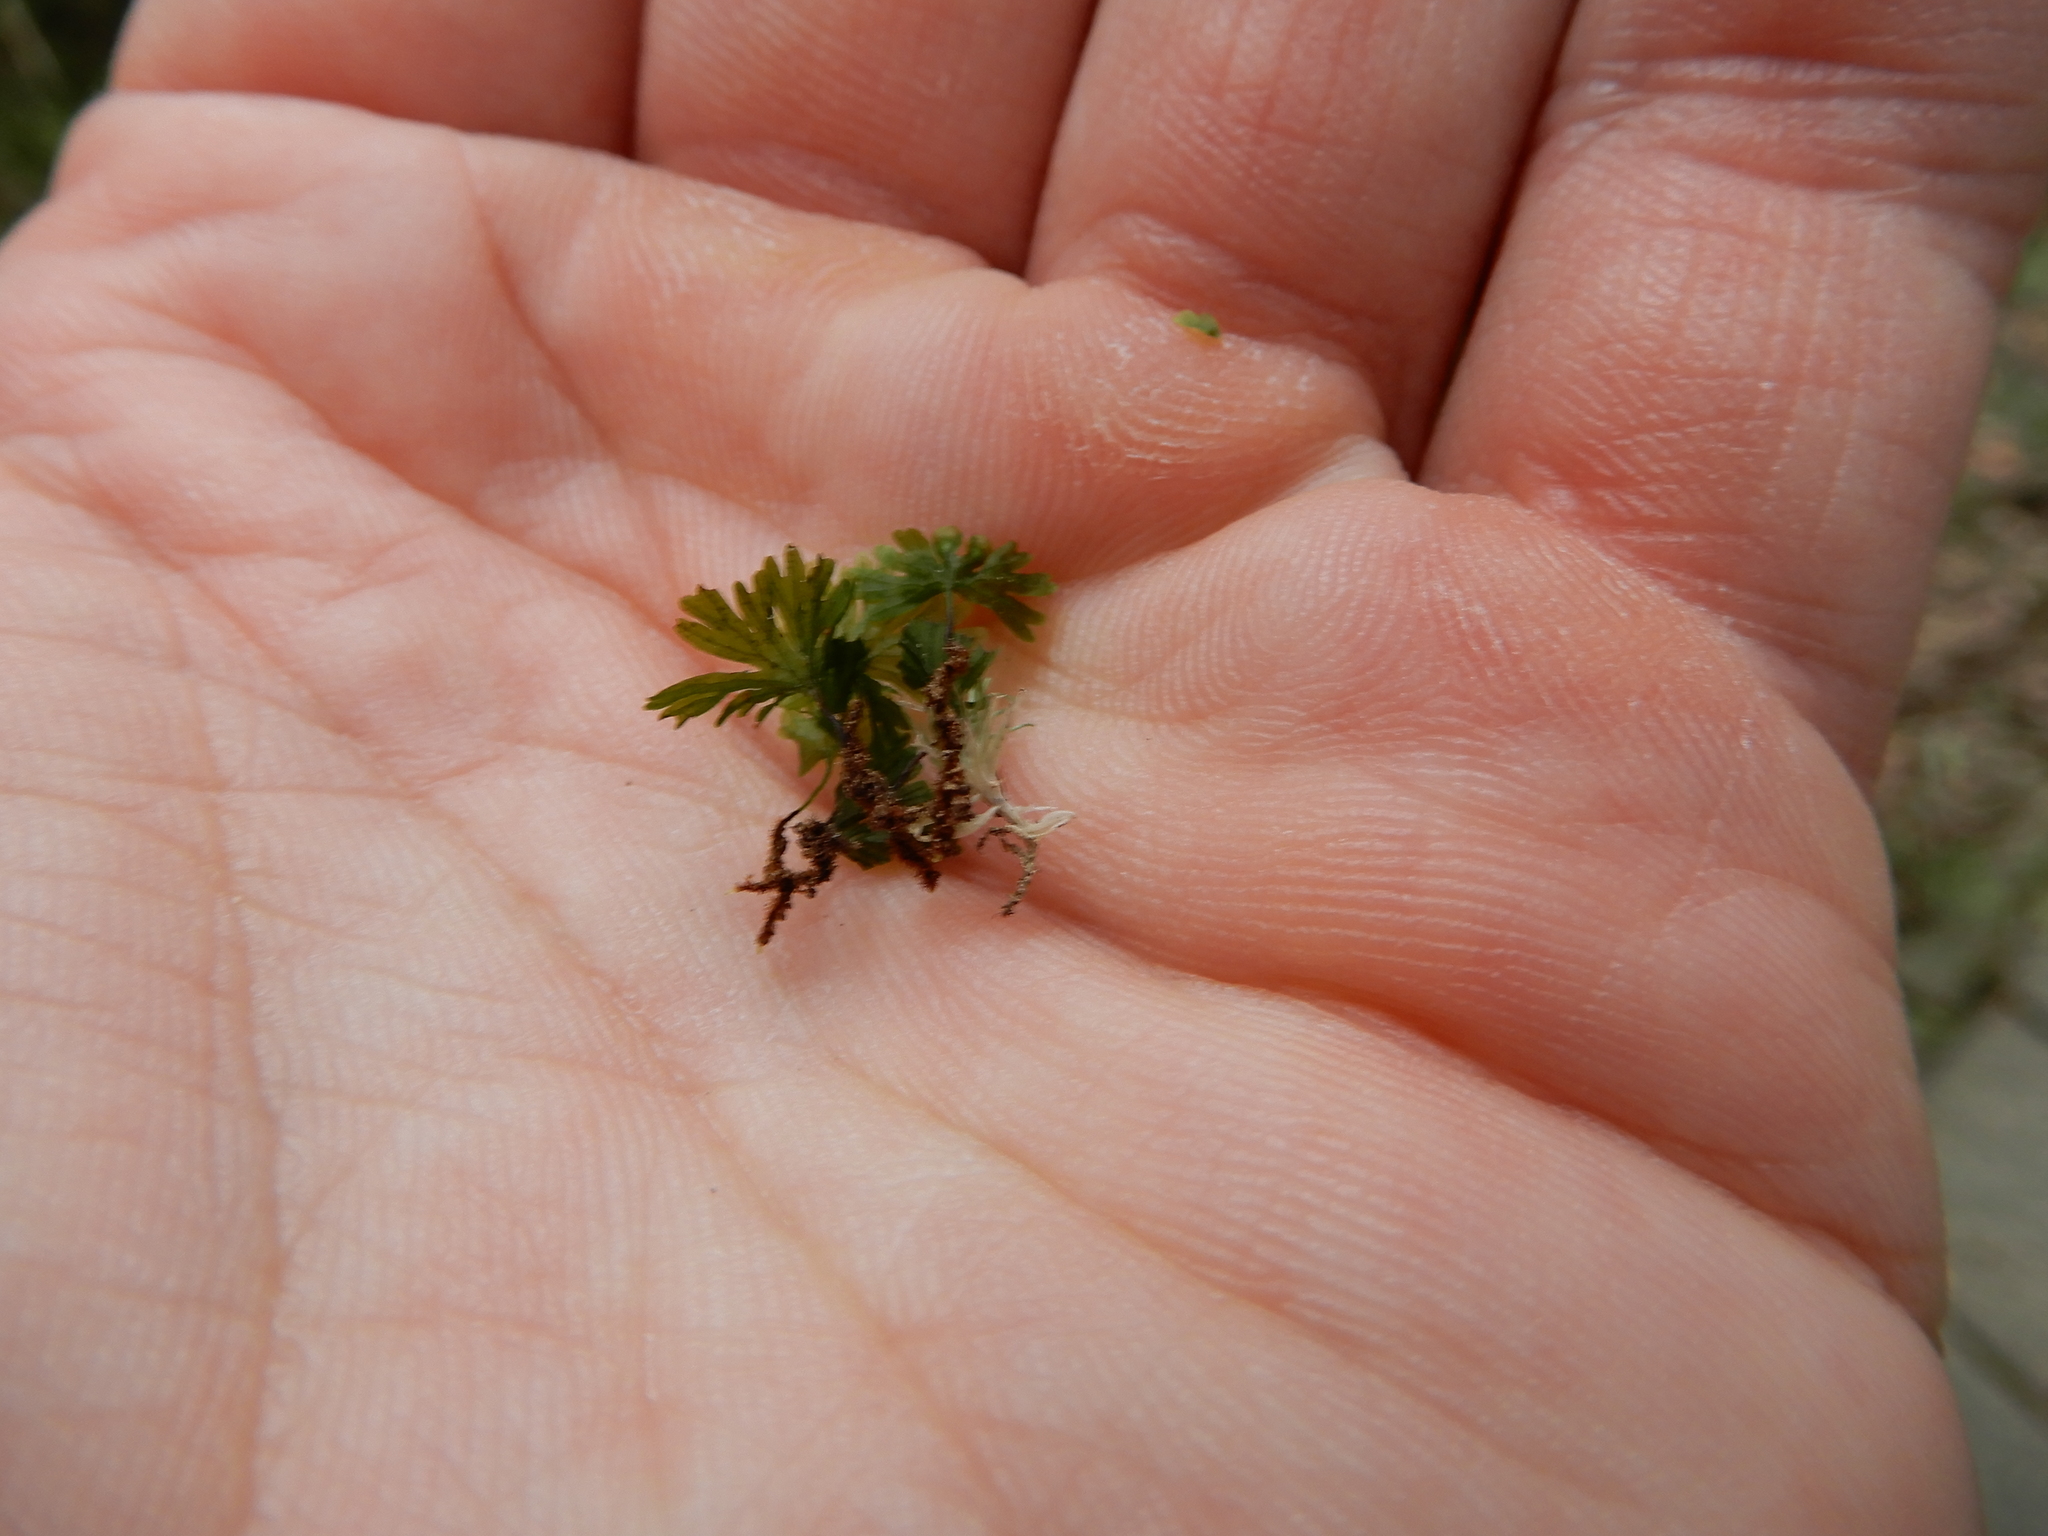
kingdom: Plantae
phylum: Tracheophyta
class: Polypodiopsida
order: Hymenophyllales
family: Hymenophyllaceae
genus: Crepidomanes
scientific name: Crepidomanes parvulum
